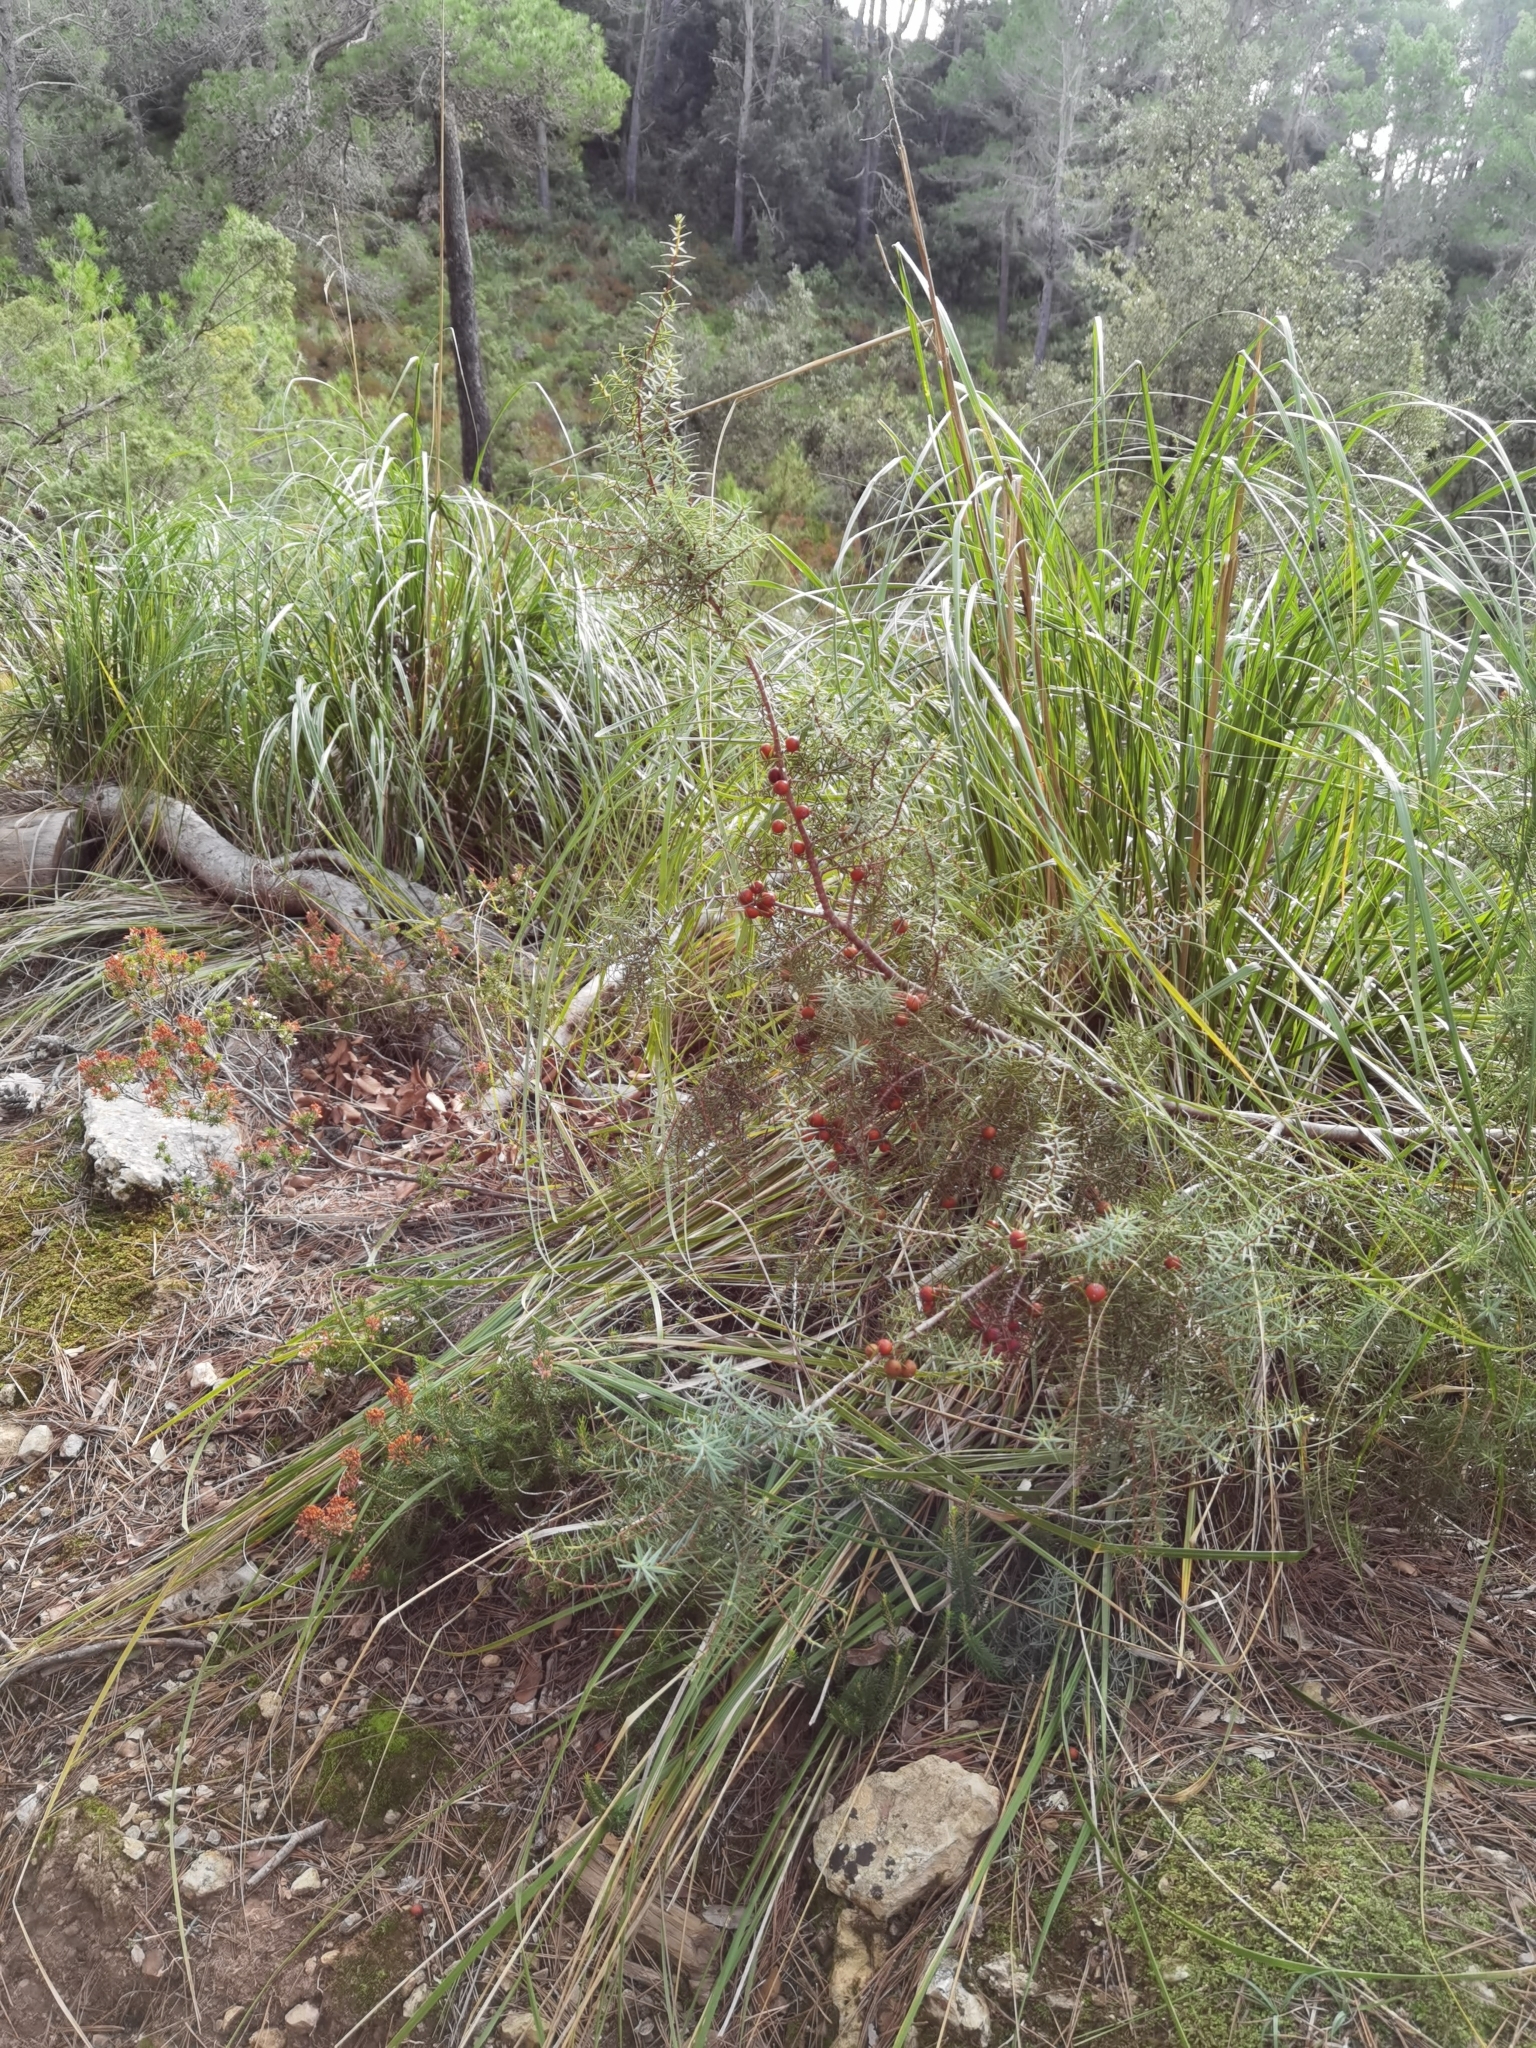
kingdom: Plantae
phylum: Tracheophyta
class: Pinopsida
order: Pinales
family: Cupressaceae
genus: Juniperus
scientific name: Juniperus oxycedrus
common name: Prickly juniper
